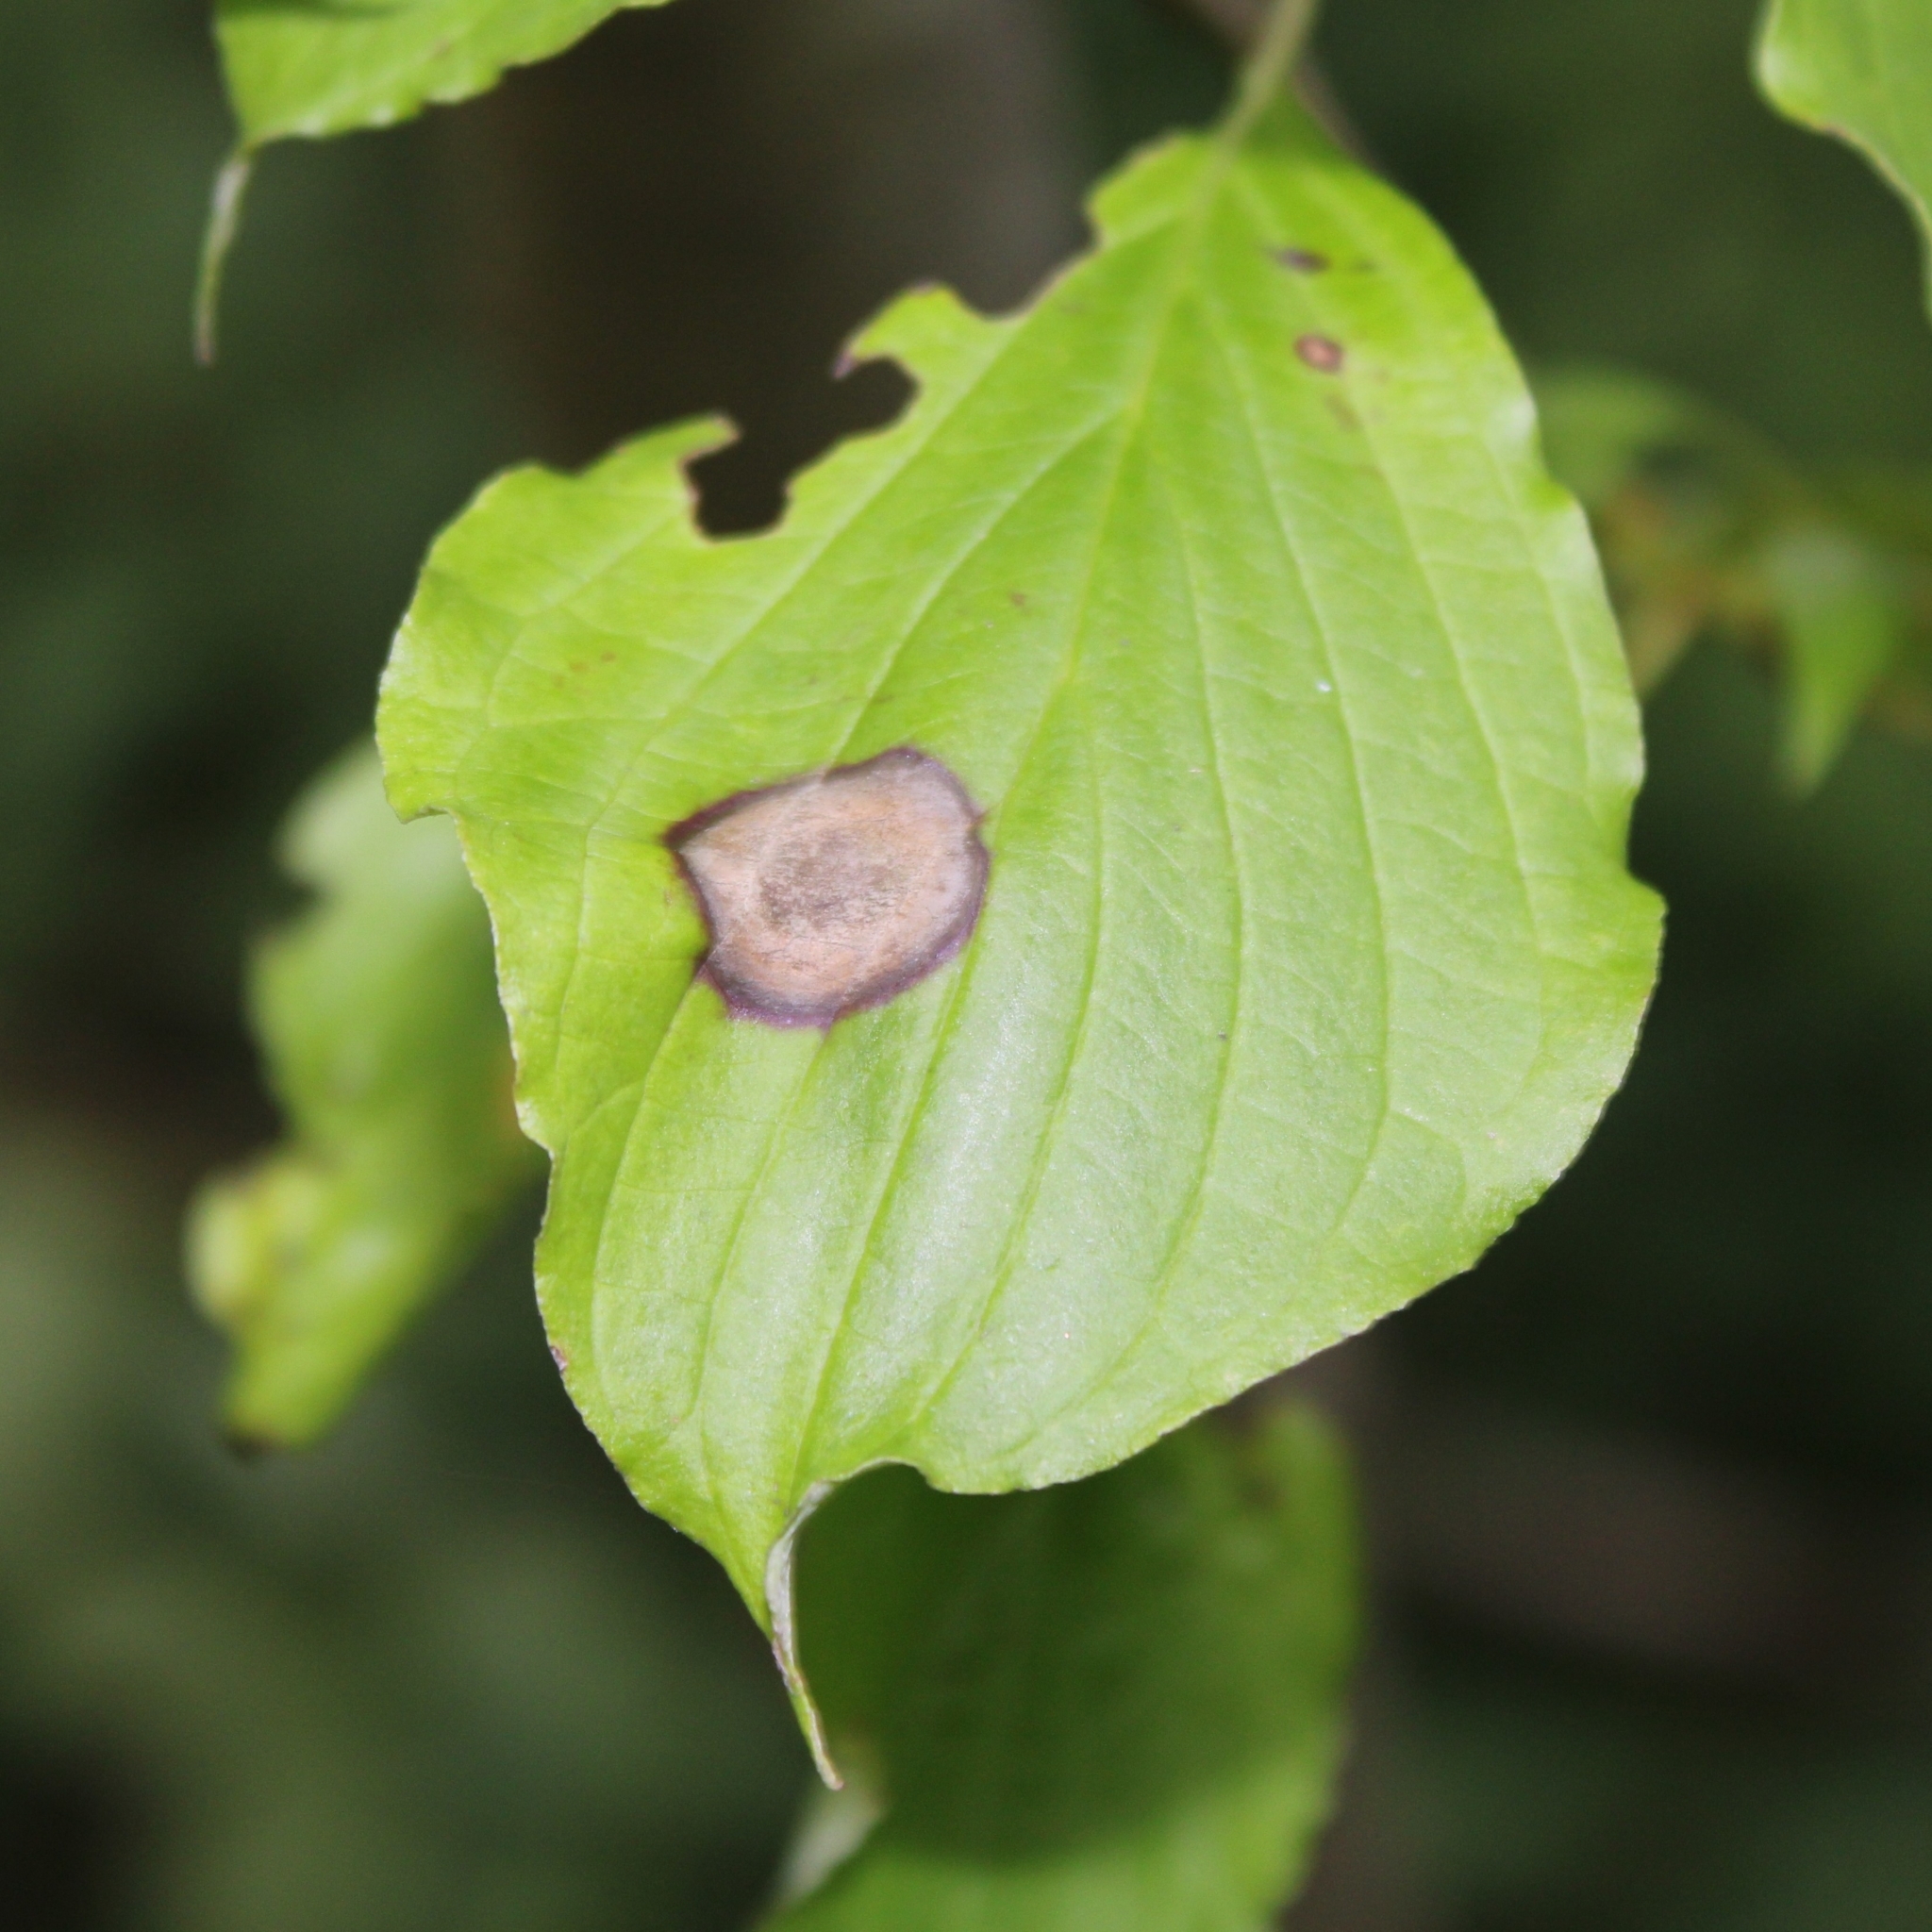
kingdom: Animalia
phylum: Arthropoda
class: Insecta
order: Diptera
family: Cecidomyiidae
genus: Parallelodiplosis
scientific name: Parallelodiplosis subtruncata
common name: Dogwood eyespot gall midge
